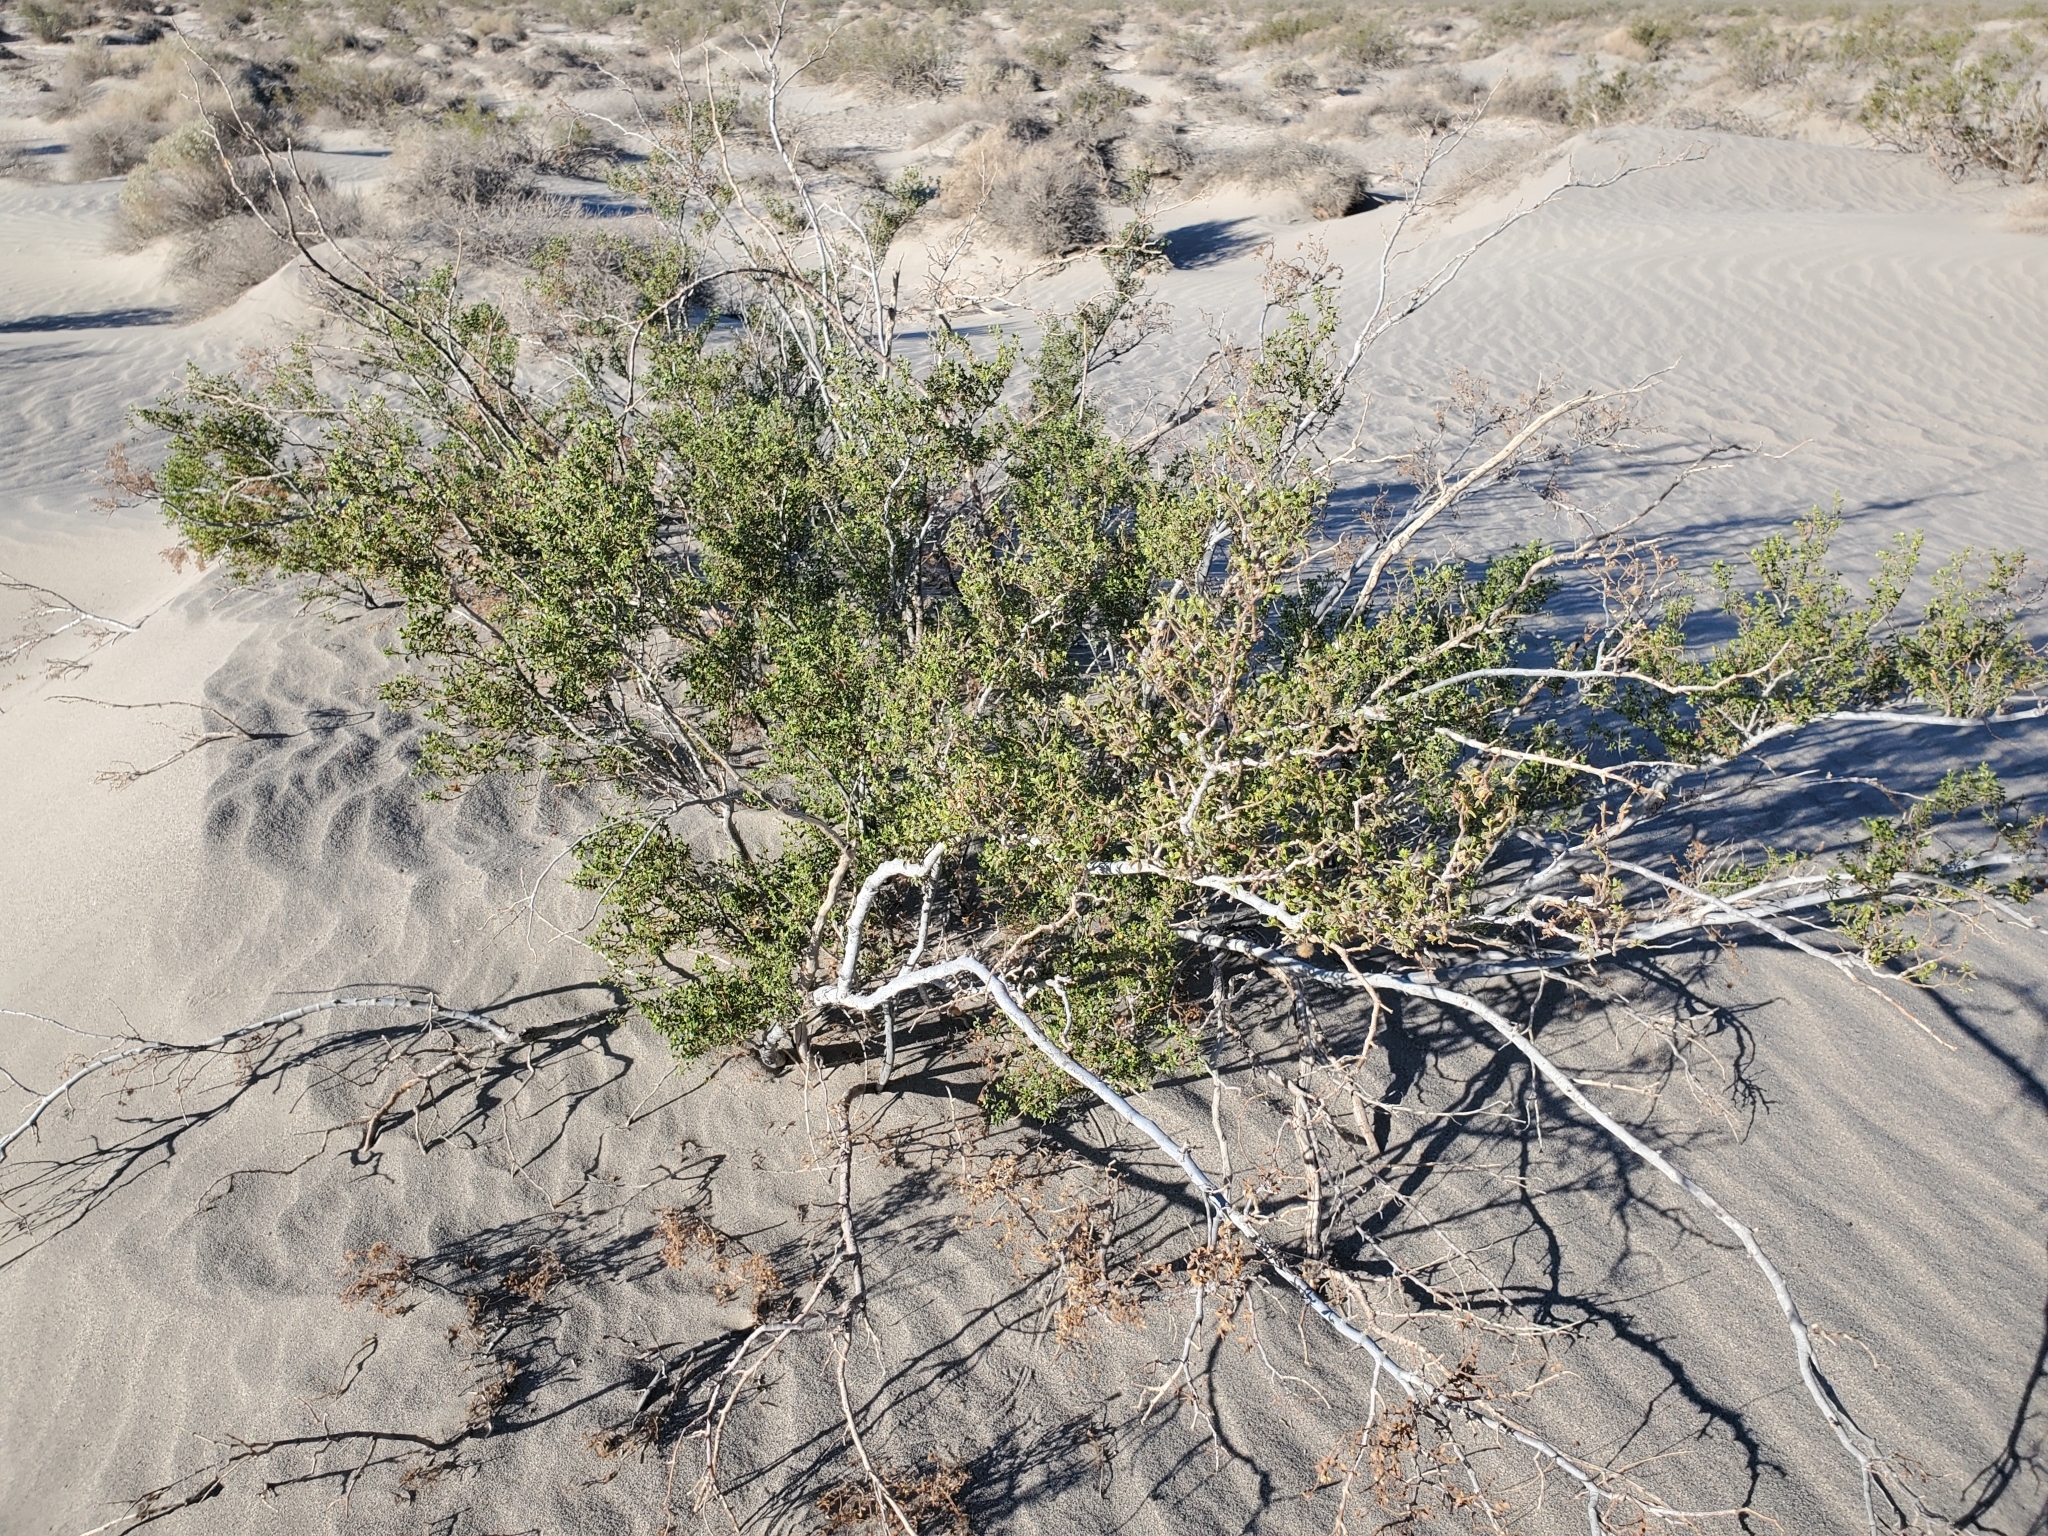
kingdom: Plantae
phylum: Tracheophyta
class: Magnoliopsida
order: Zygophyllales
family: Zygophyllaceae
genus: Larrea
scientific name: Larrea tridentata
